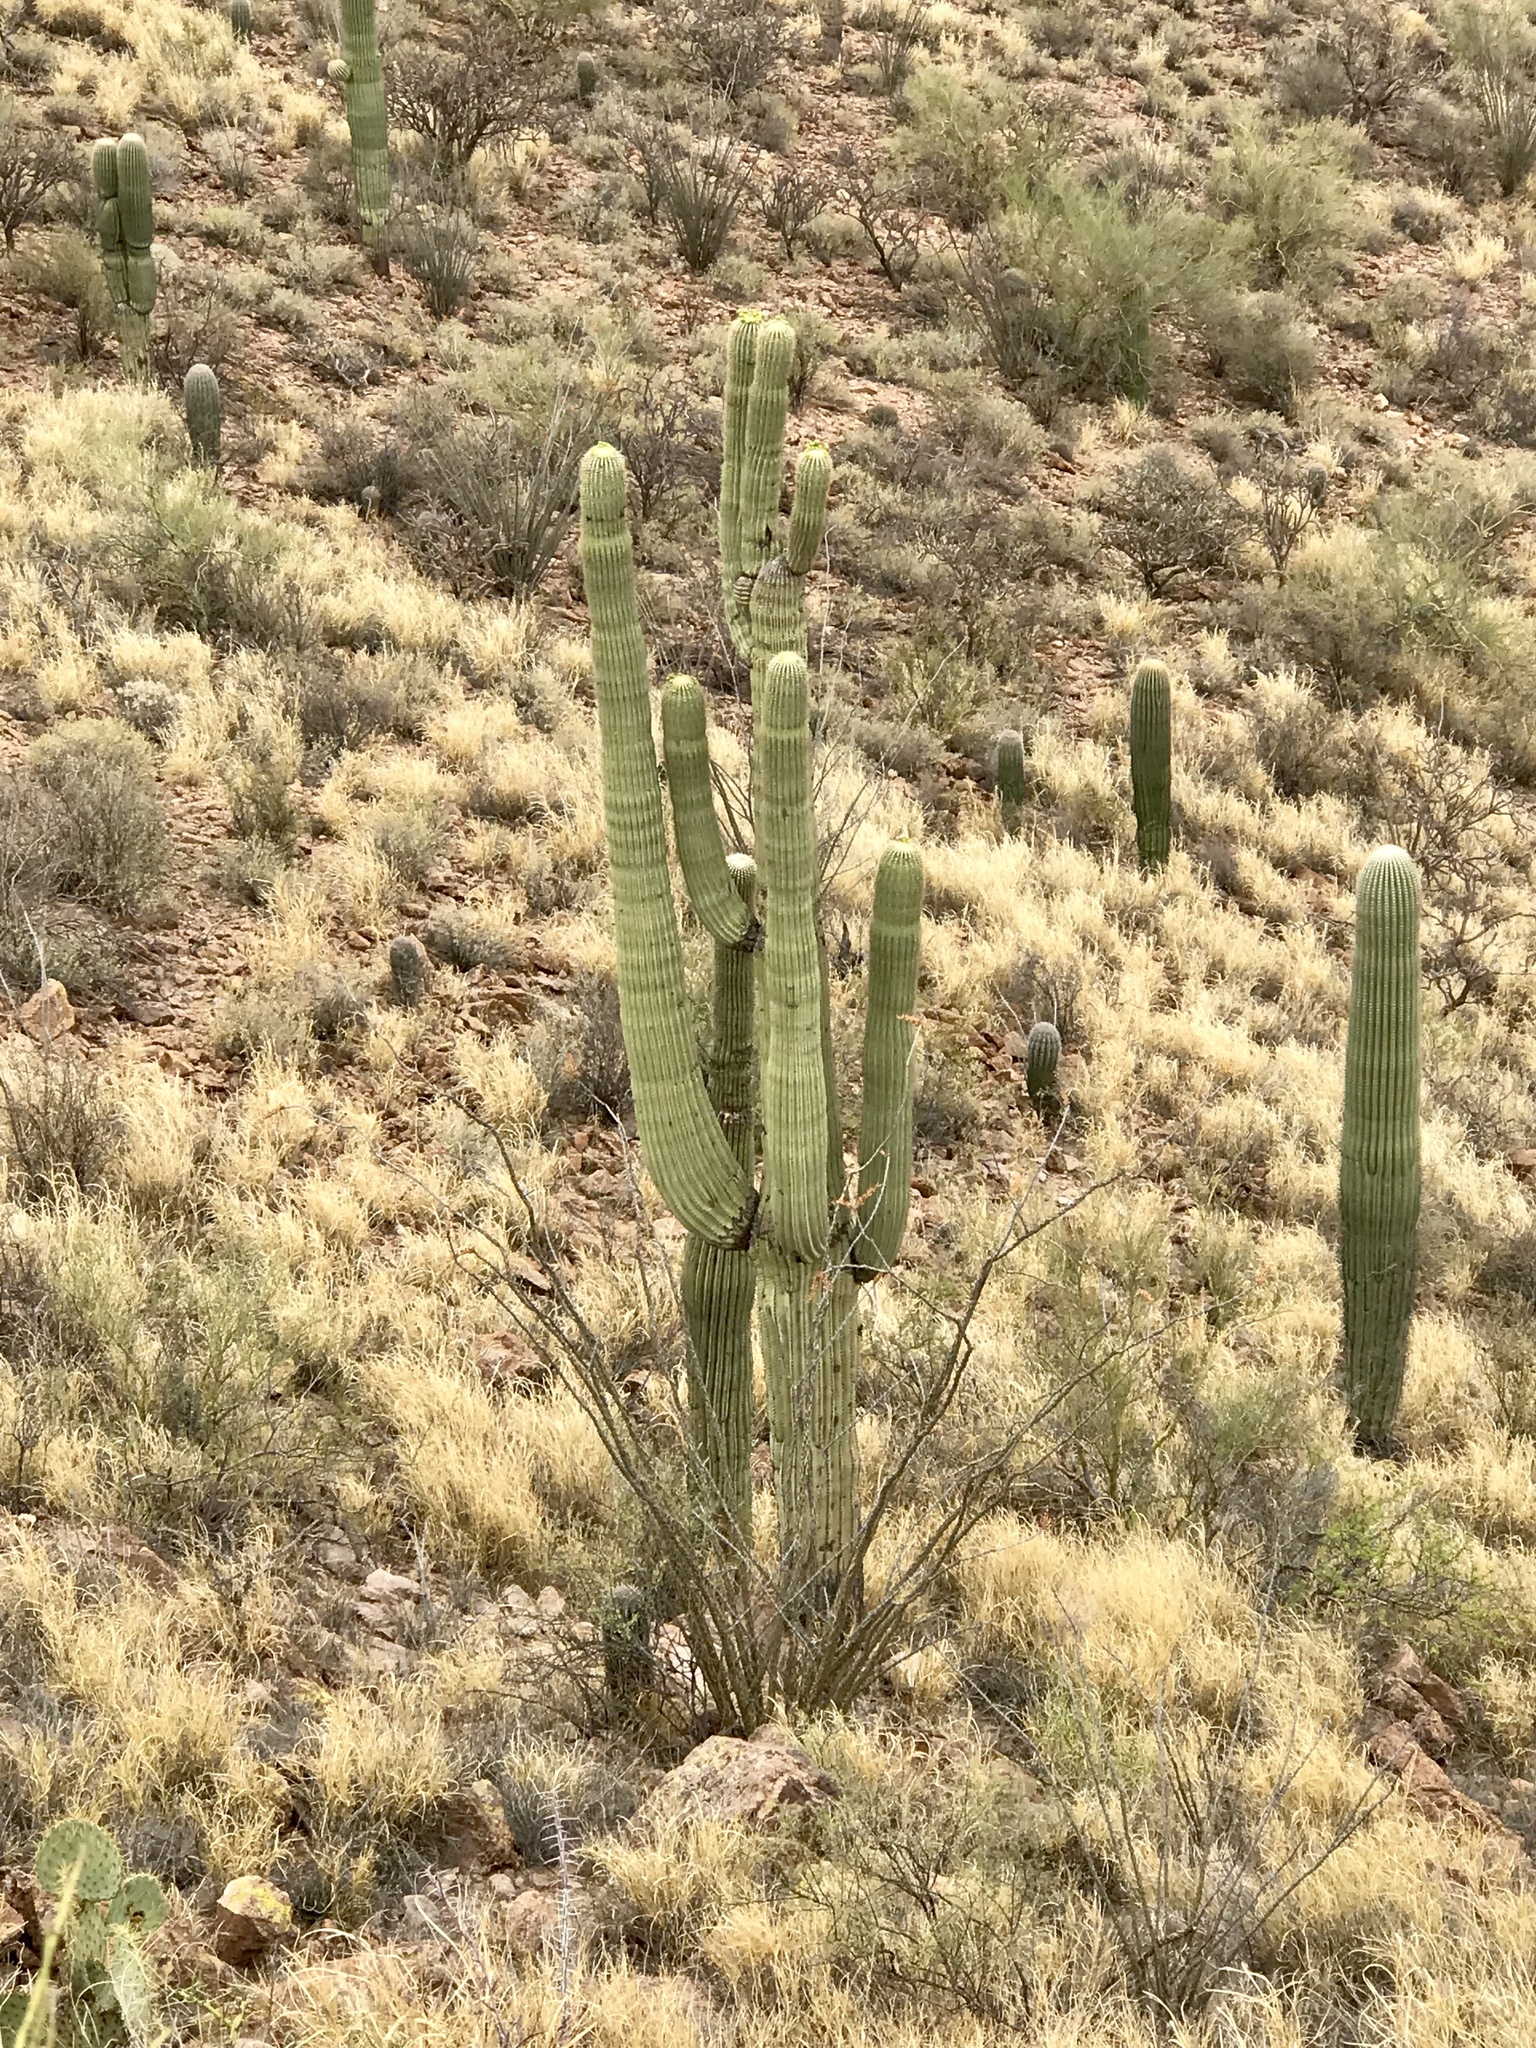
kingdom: Plantae
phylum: Tracheophyta
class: Magnoliopsida
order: Caryophyllales
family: Cactaceae
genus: Carnegiea
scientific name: Carnegiea gigantea
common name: Saguaro
